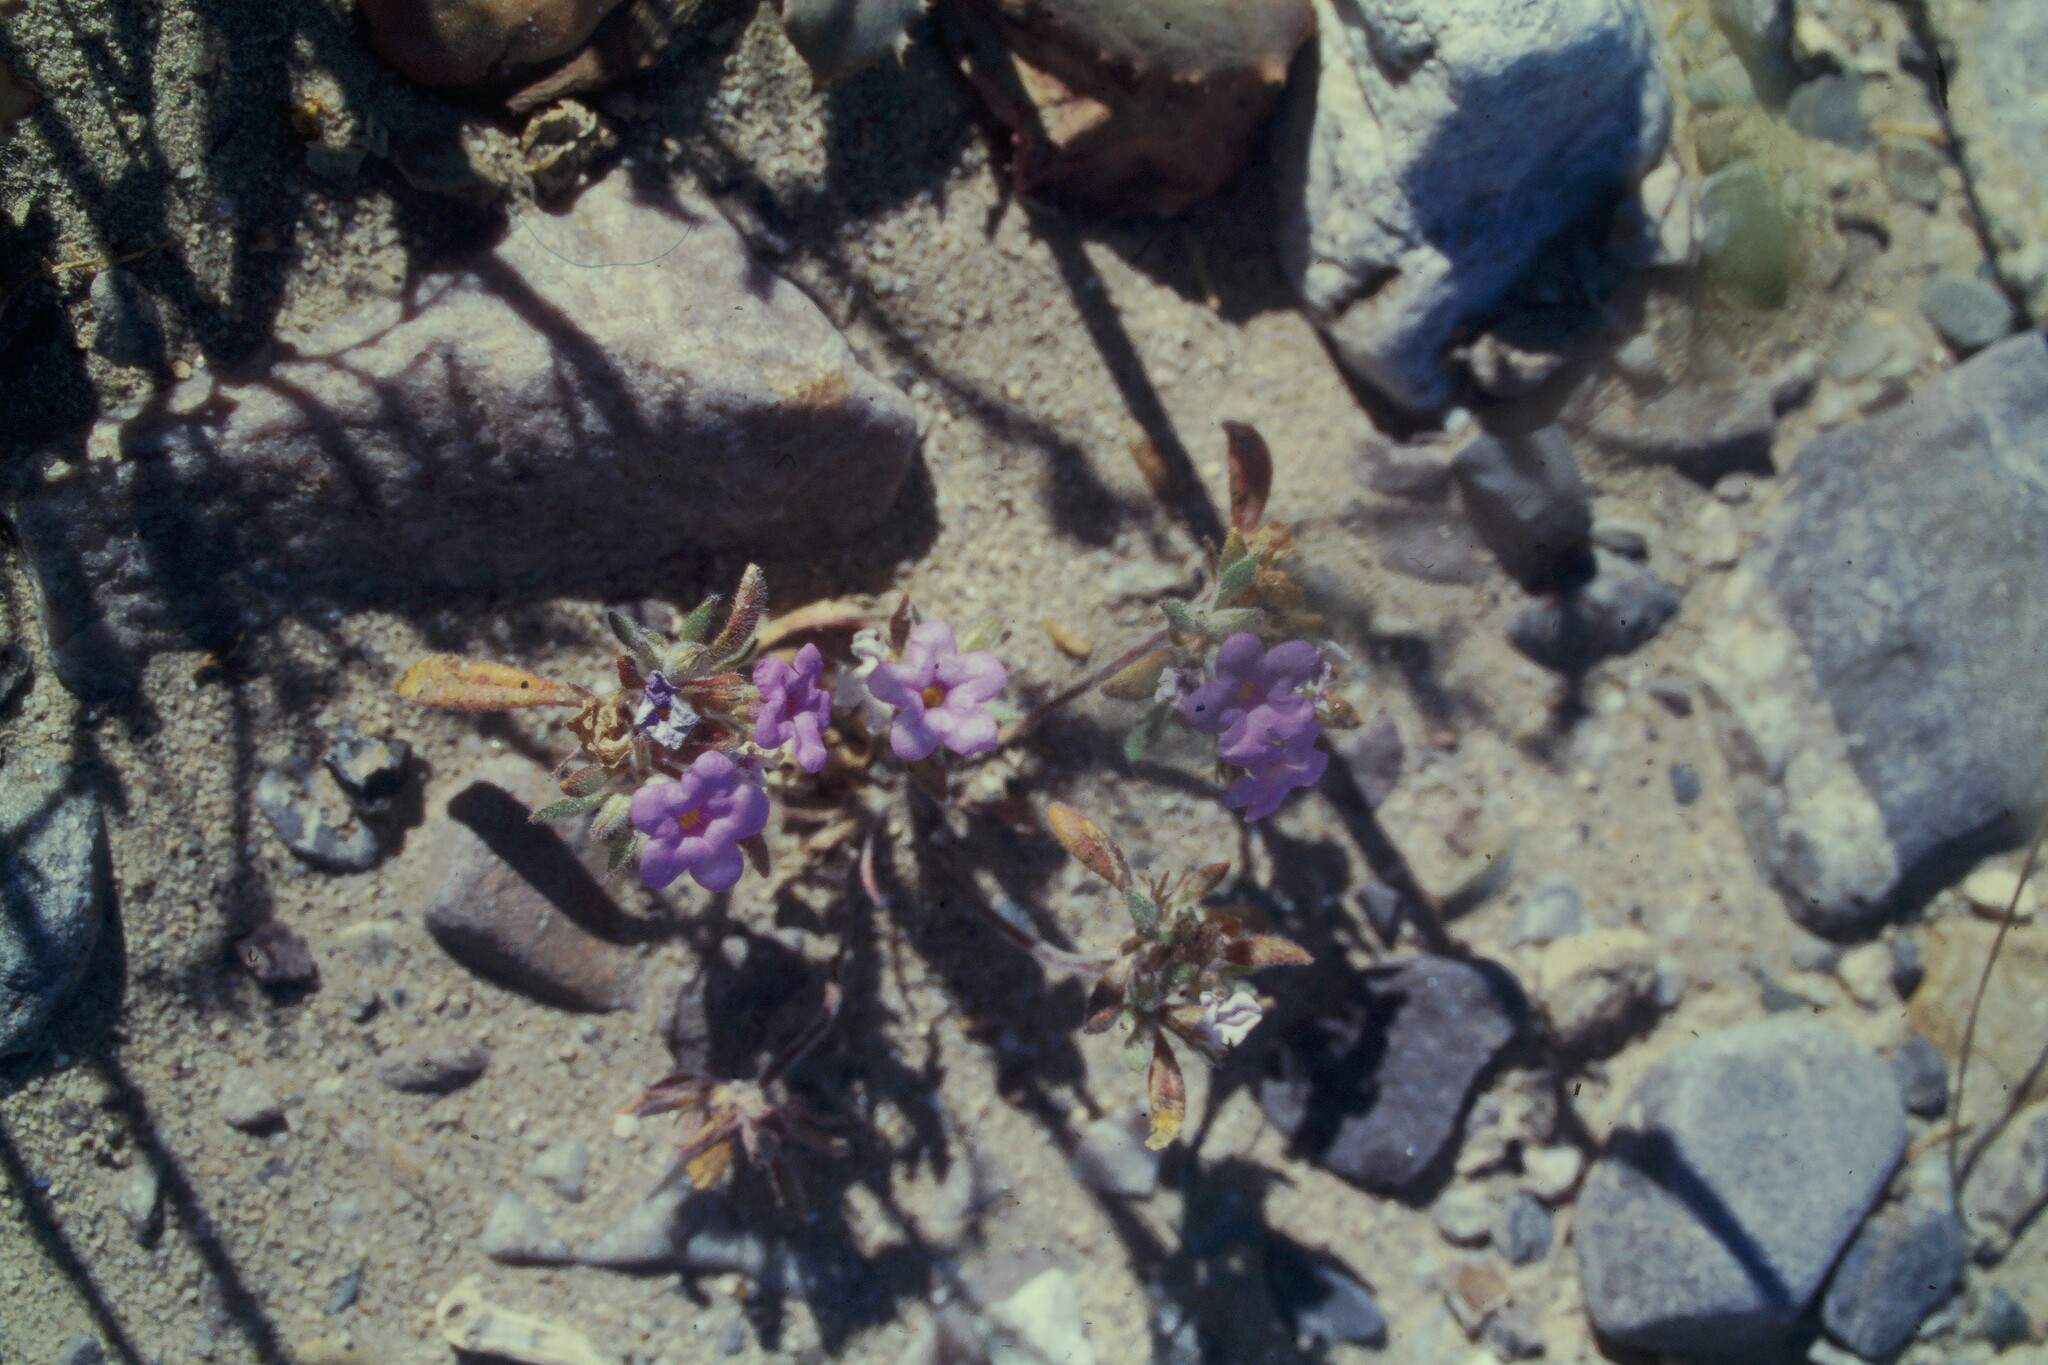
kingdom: Plantae
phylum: Tracheophyta
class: Magnoliopsida
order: Boraginales
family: Namaceae
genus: Nama
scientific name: Nama demissa
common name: Leafy nama
